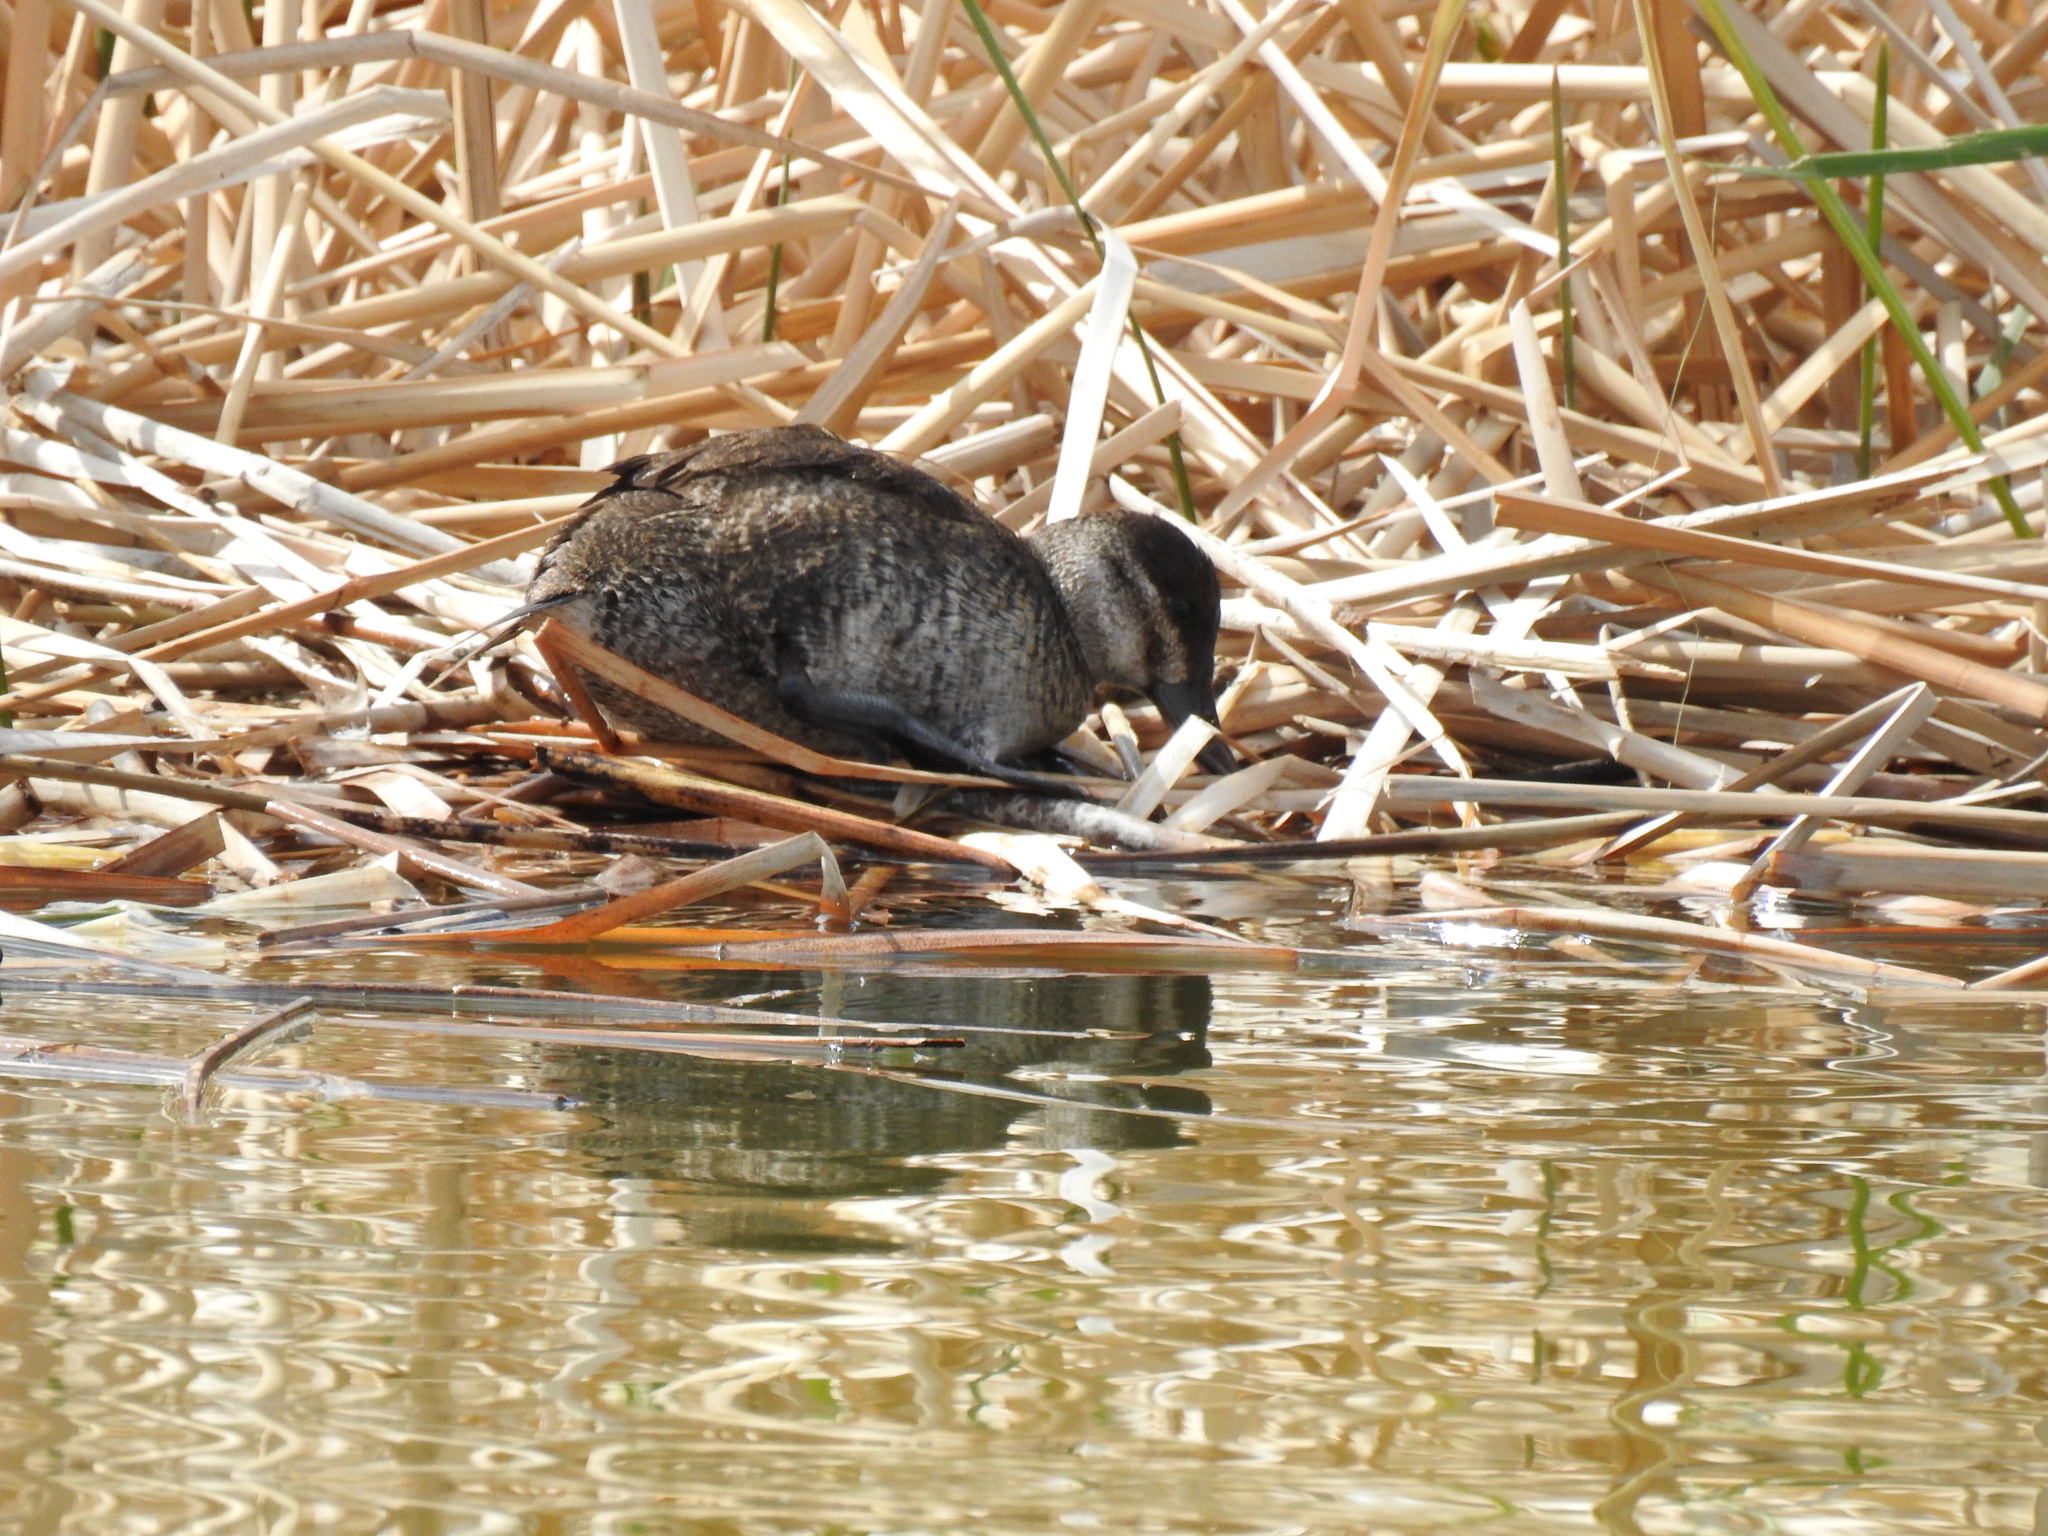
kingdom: Animalia
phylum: Chordata
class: Aves
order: Anseriformes
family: Anatidae
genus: Oxyura
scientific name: Oxyura jamaicensis
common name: Ruddy duck
